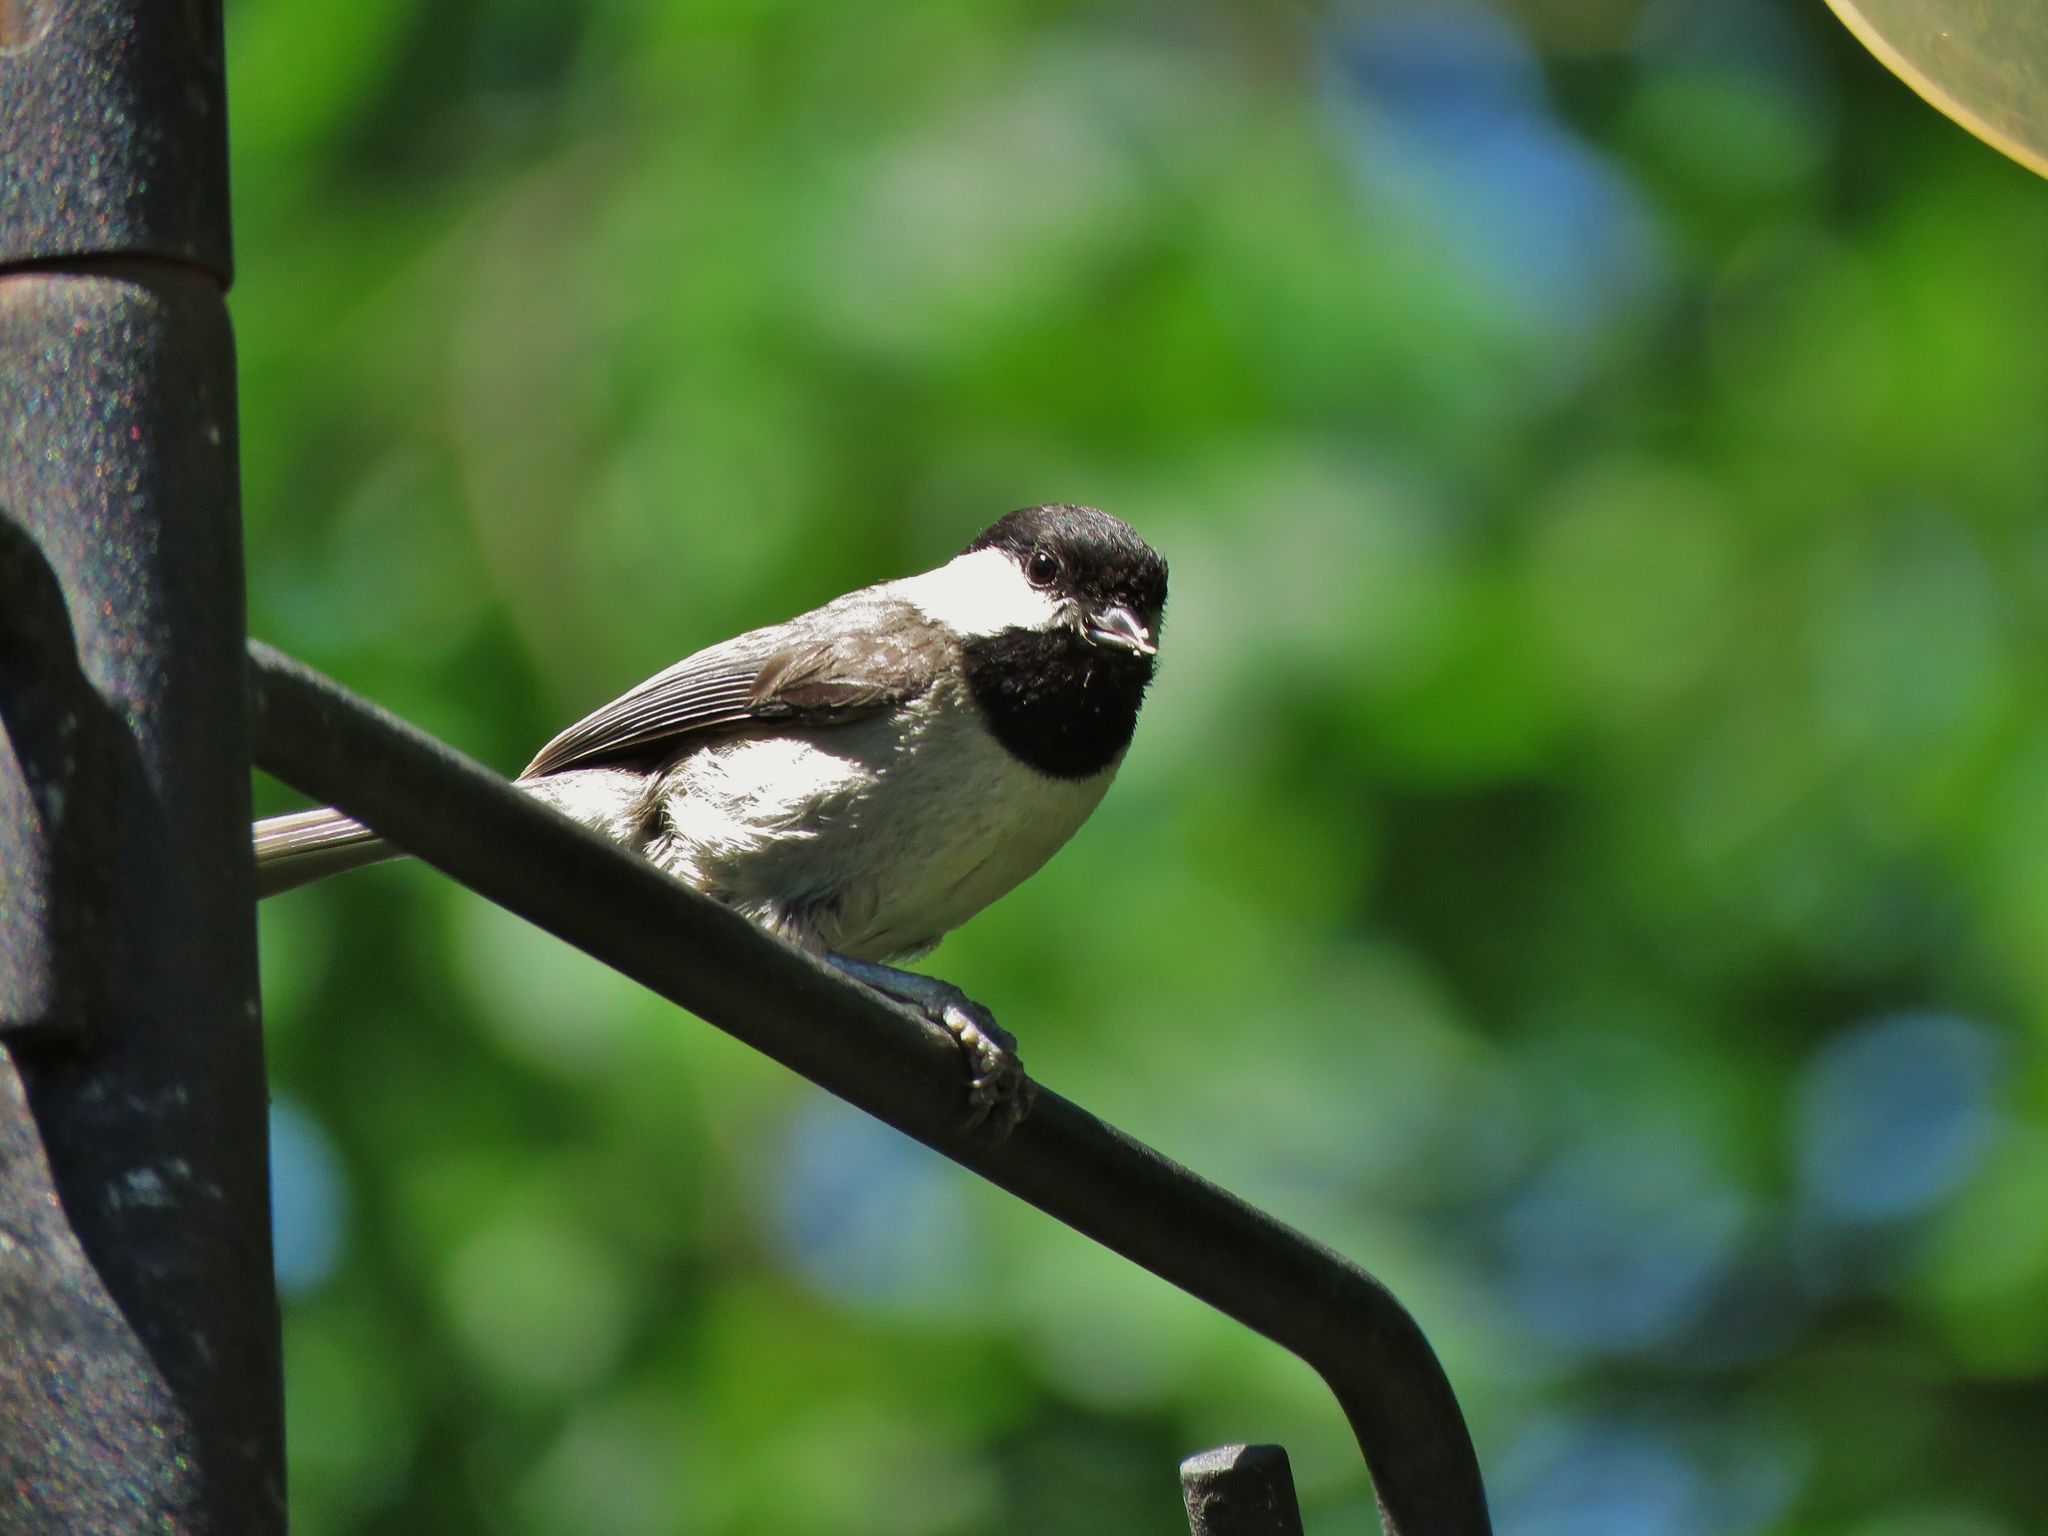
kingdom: Animalia
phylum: Chordata
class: Aves
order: Passeriformes
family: Paridae
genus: Poecile
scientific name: Poecile carolinensis
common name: Carolina chickadee
